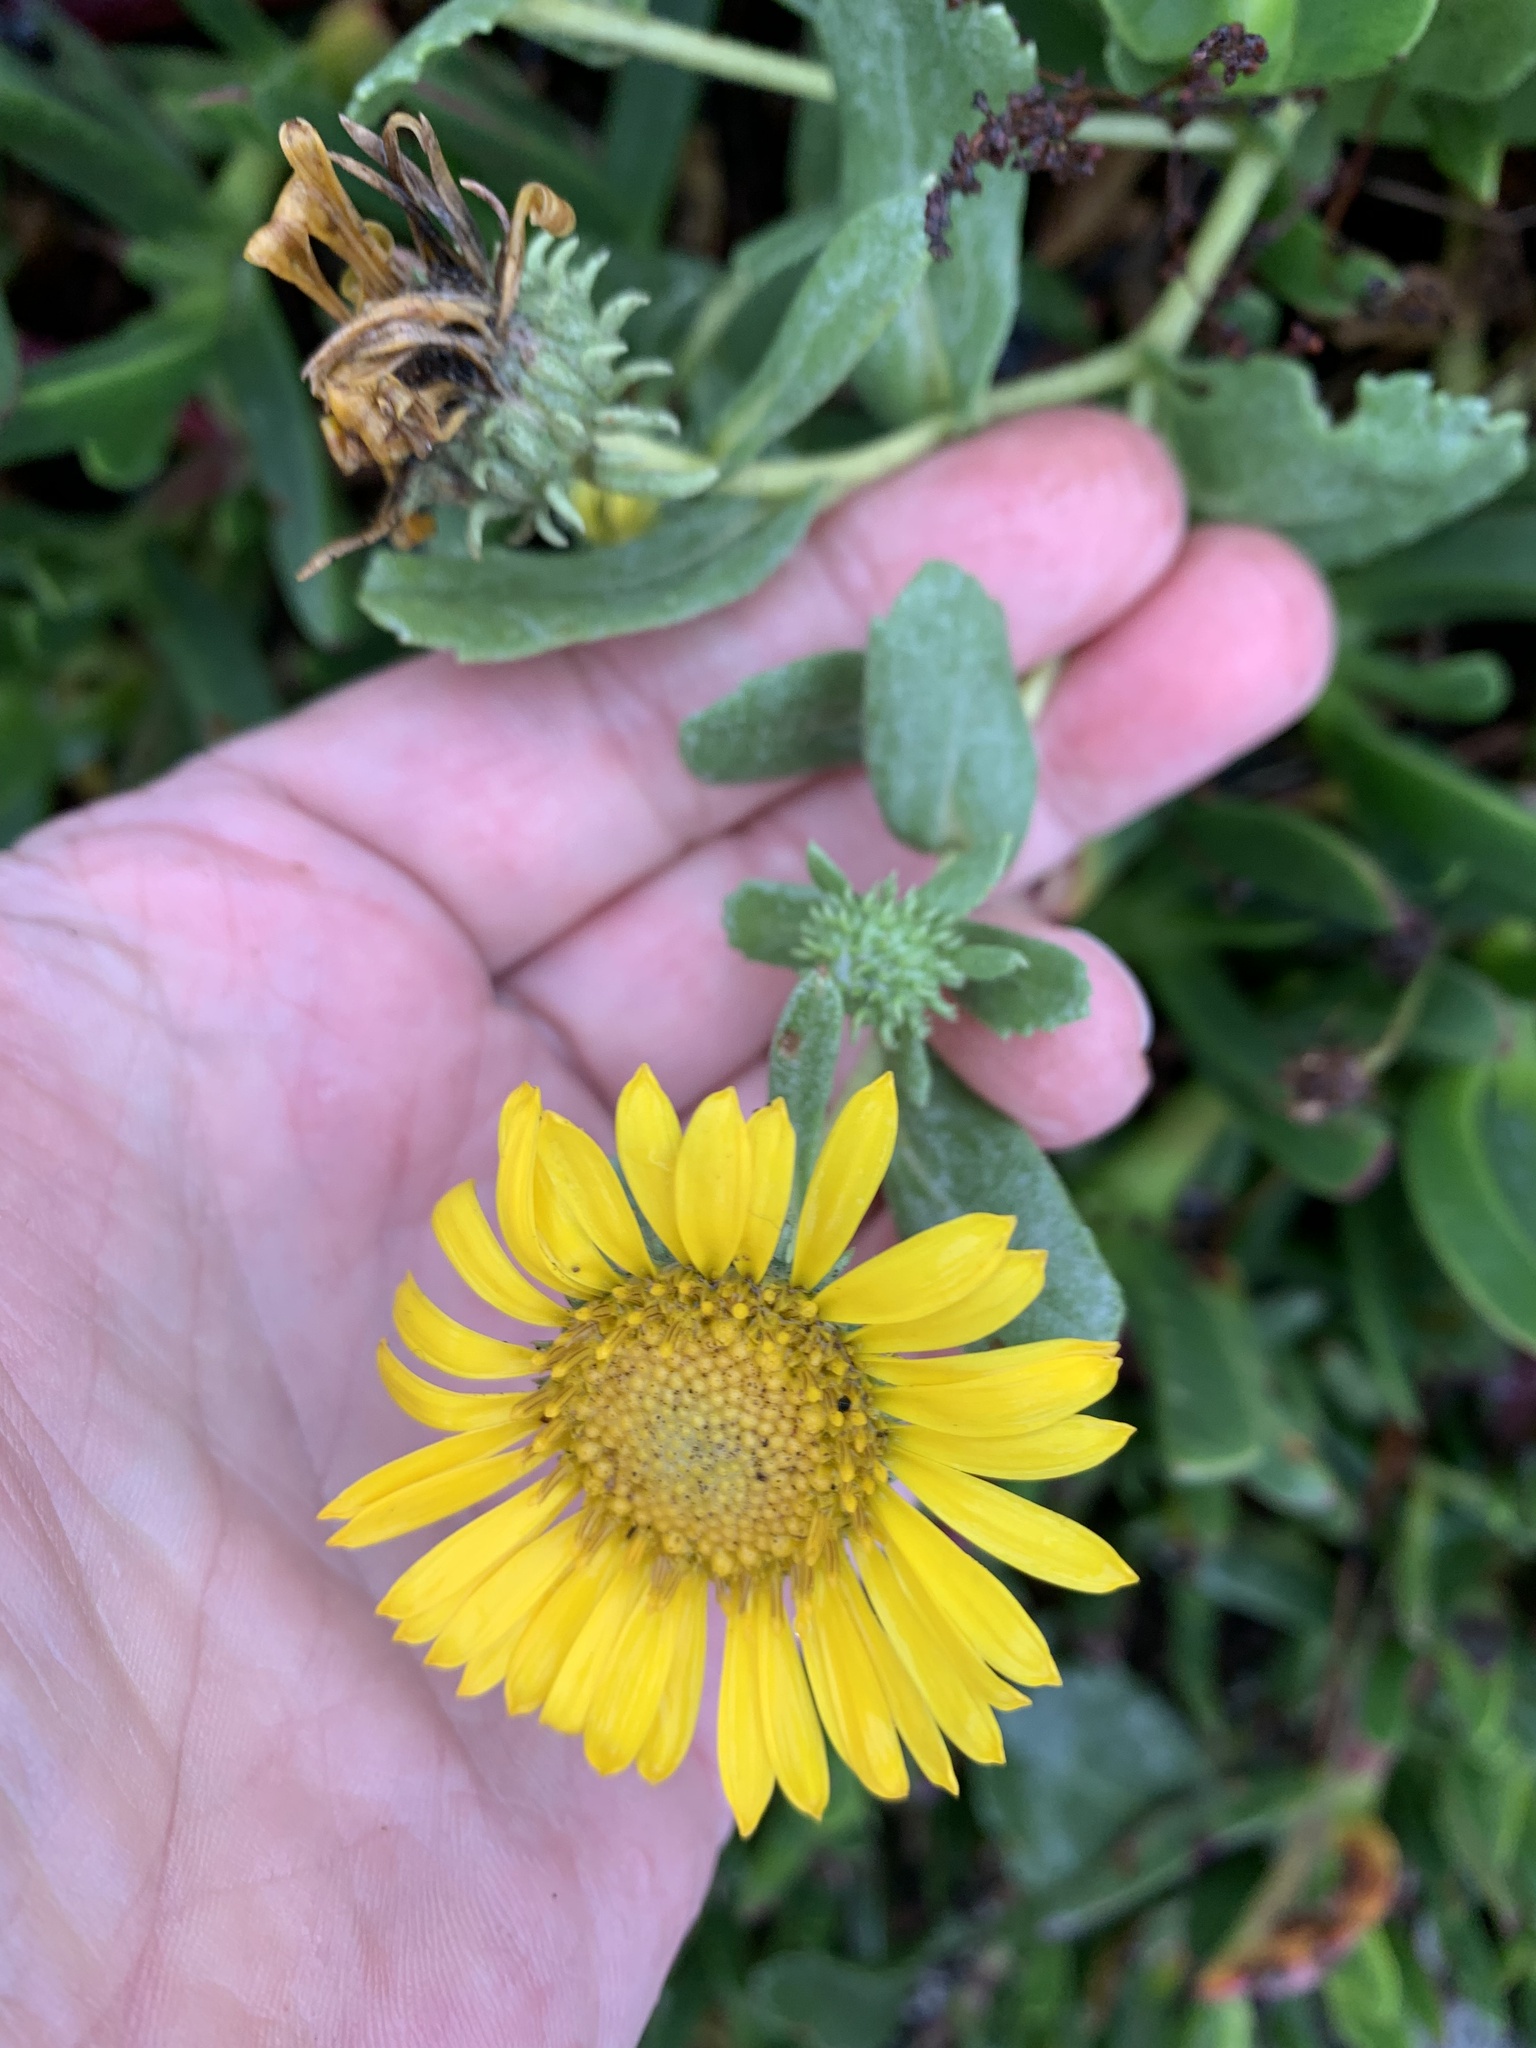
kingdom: Plantae
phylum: Tracheophyta
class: Magnoliopsida
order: Asterales
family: Asteraceae
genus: Grindelia
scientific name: Grindelia hirsutula
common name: Hairy gumweed
